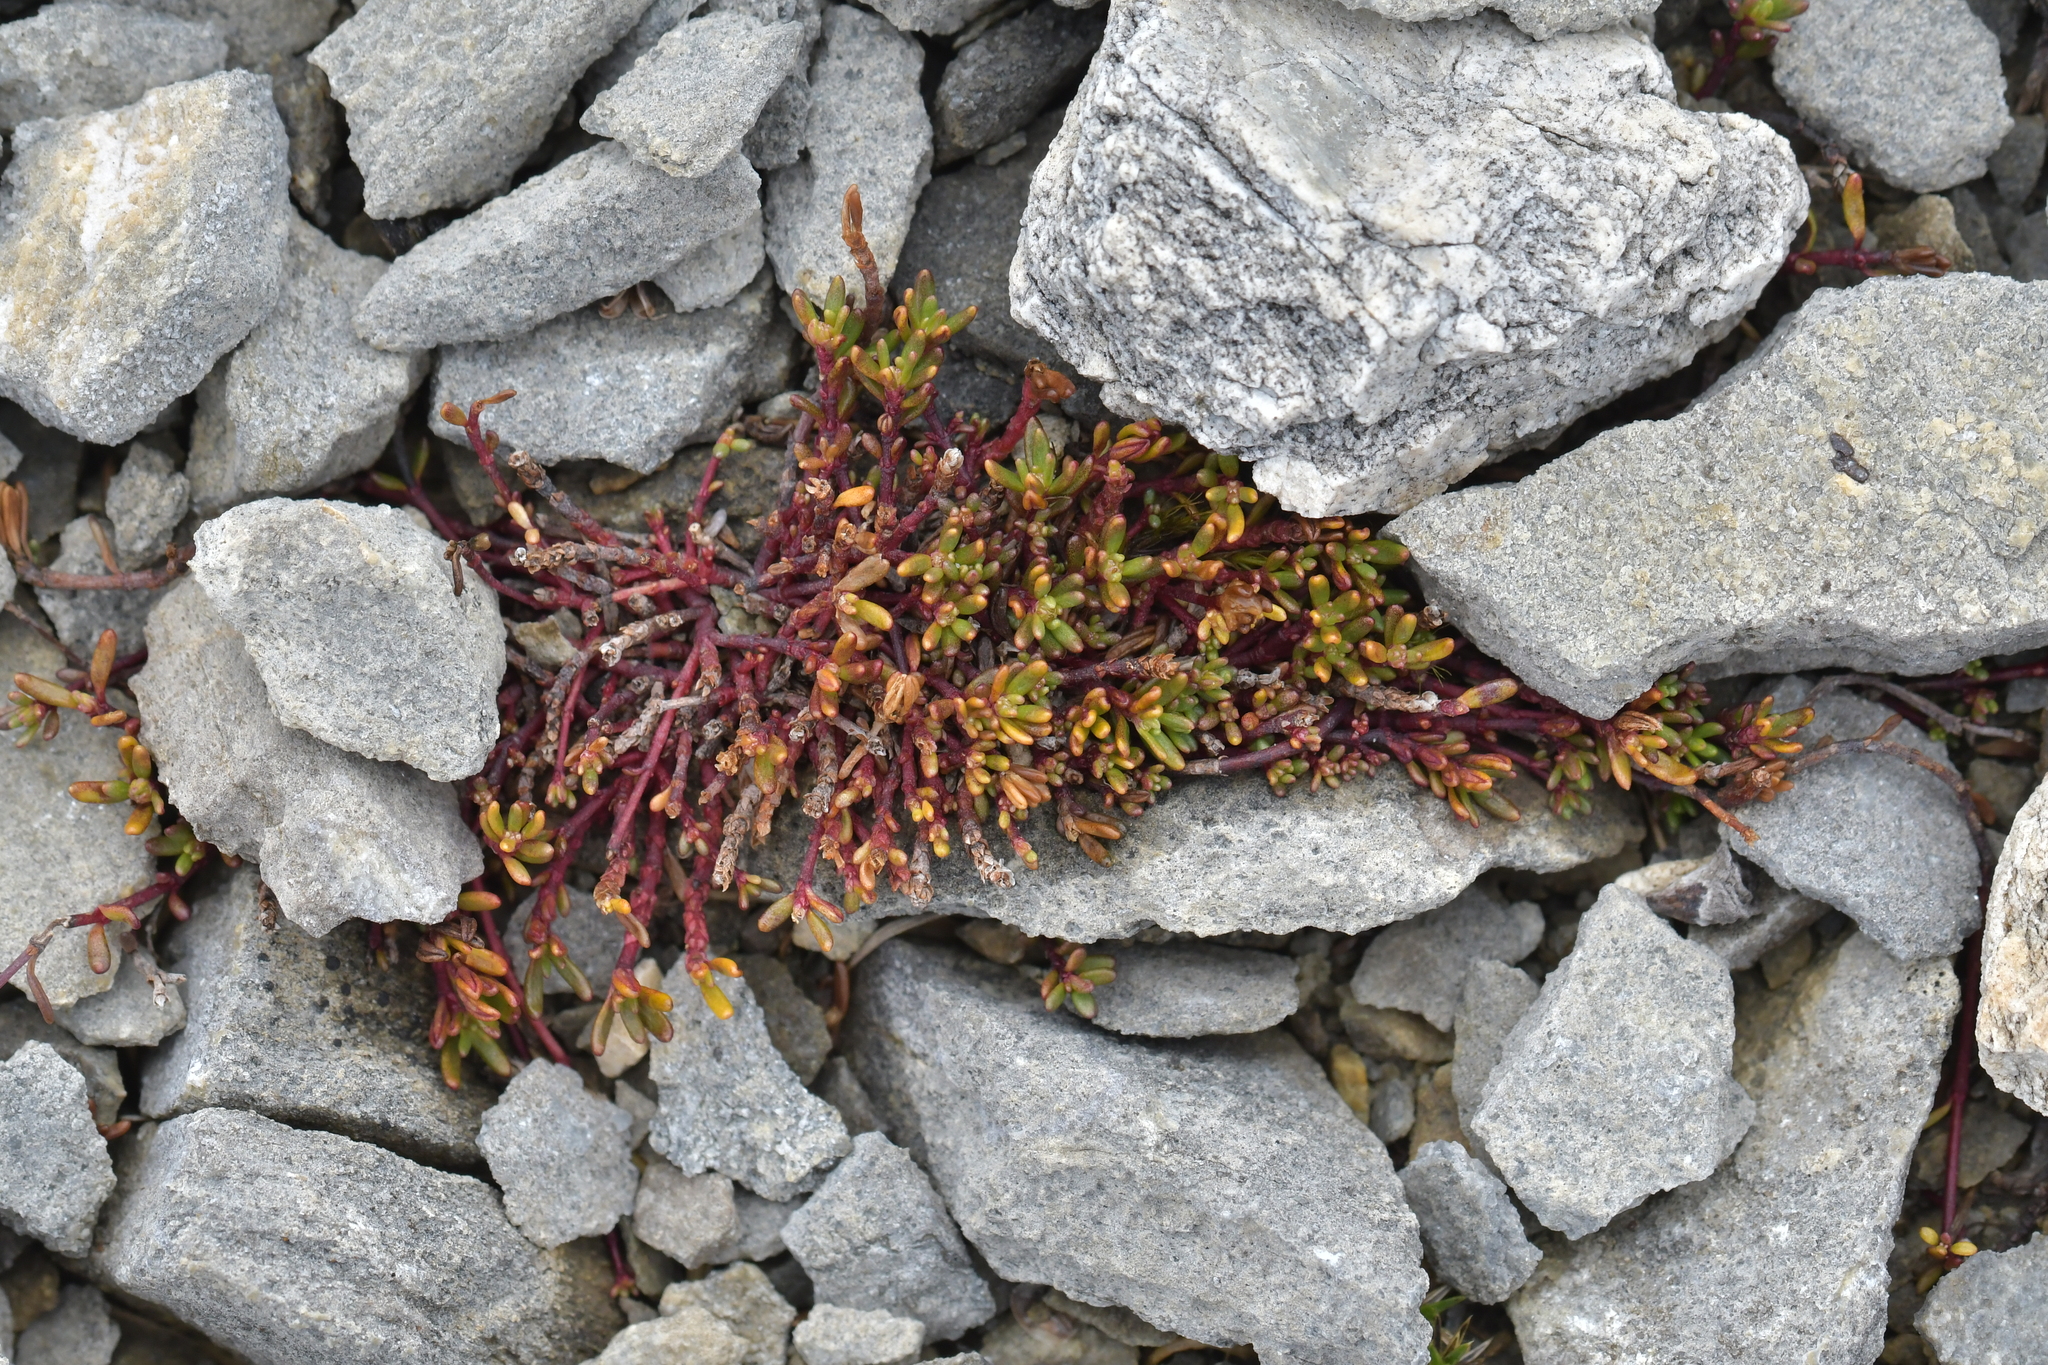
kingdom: Plantae
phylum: Tracheophyta
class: Magnoliopsida
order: Malpighiales
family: Phyllanthaceae
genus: Poranthera
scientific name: Poranthera alpina
